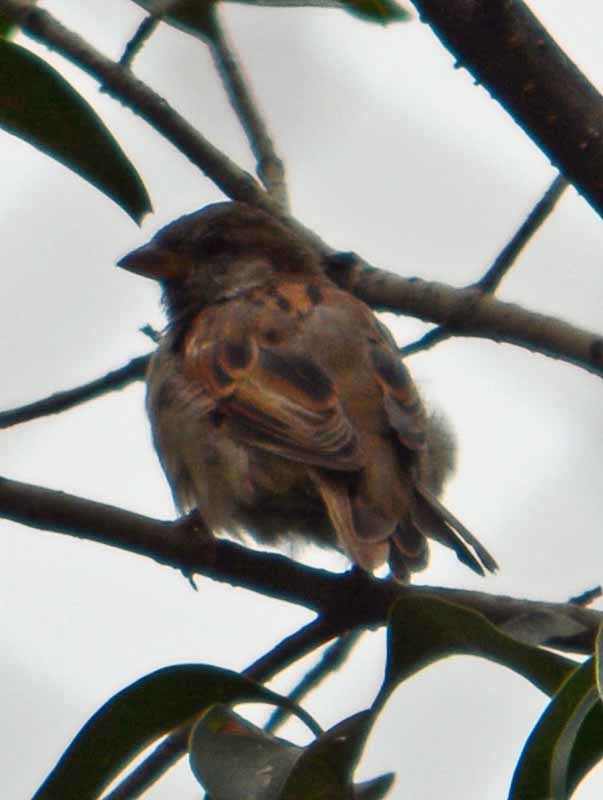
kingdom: Animalia
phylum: Chordata
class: Aves
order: Passeriformes
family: Passeridae
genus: Passer
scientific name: Passer domesticus
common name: House sparrow
